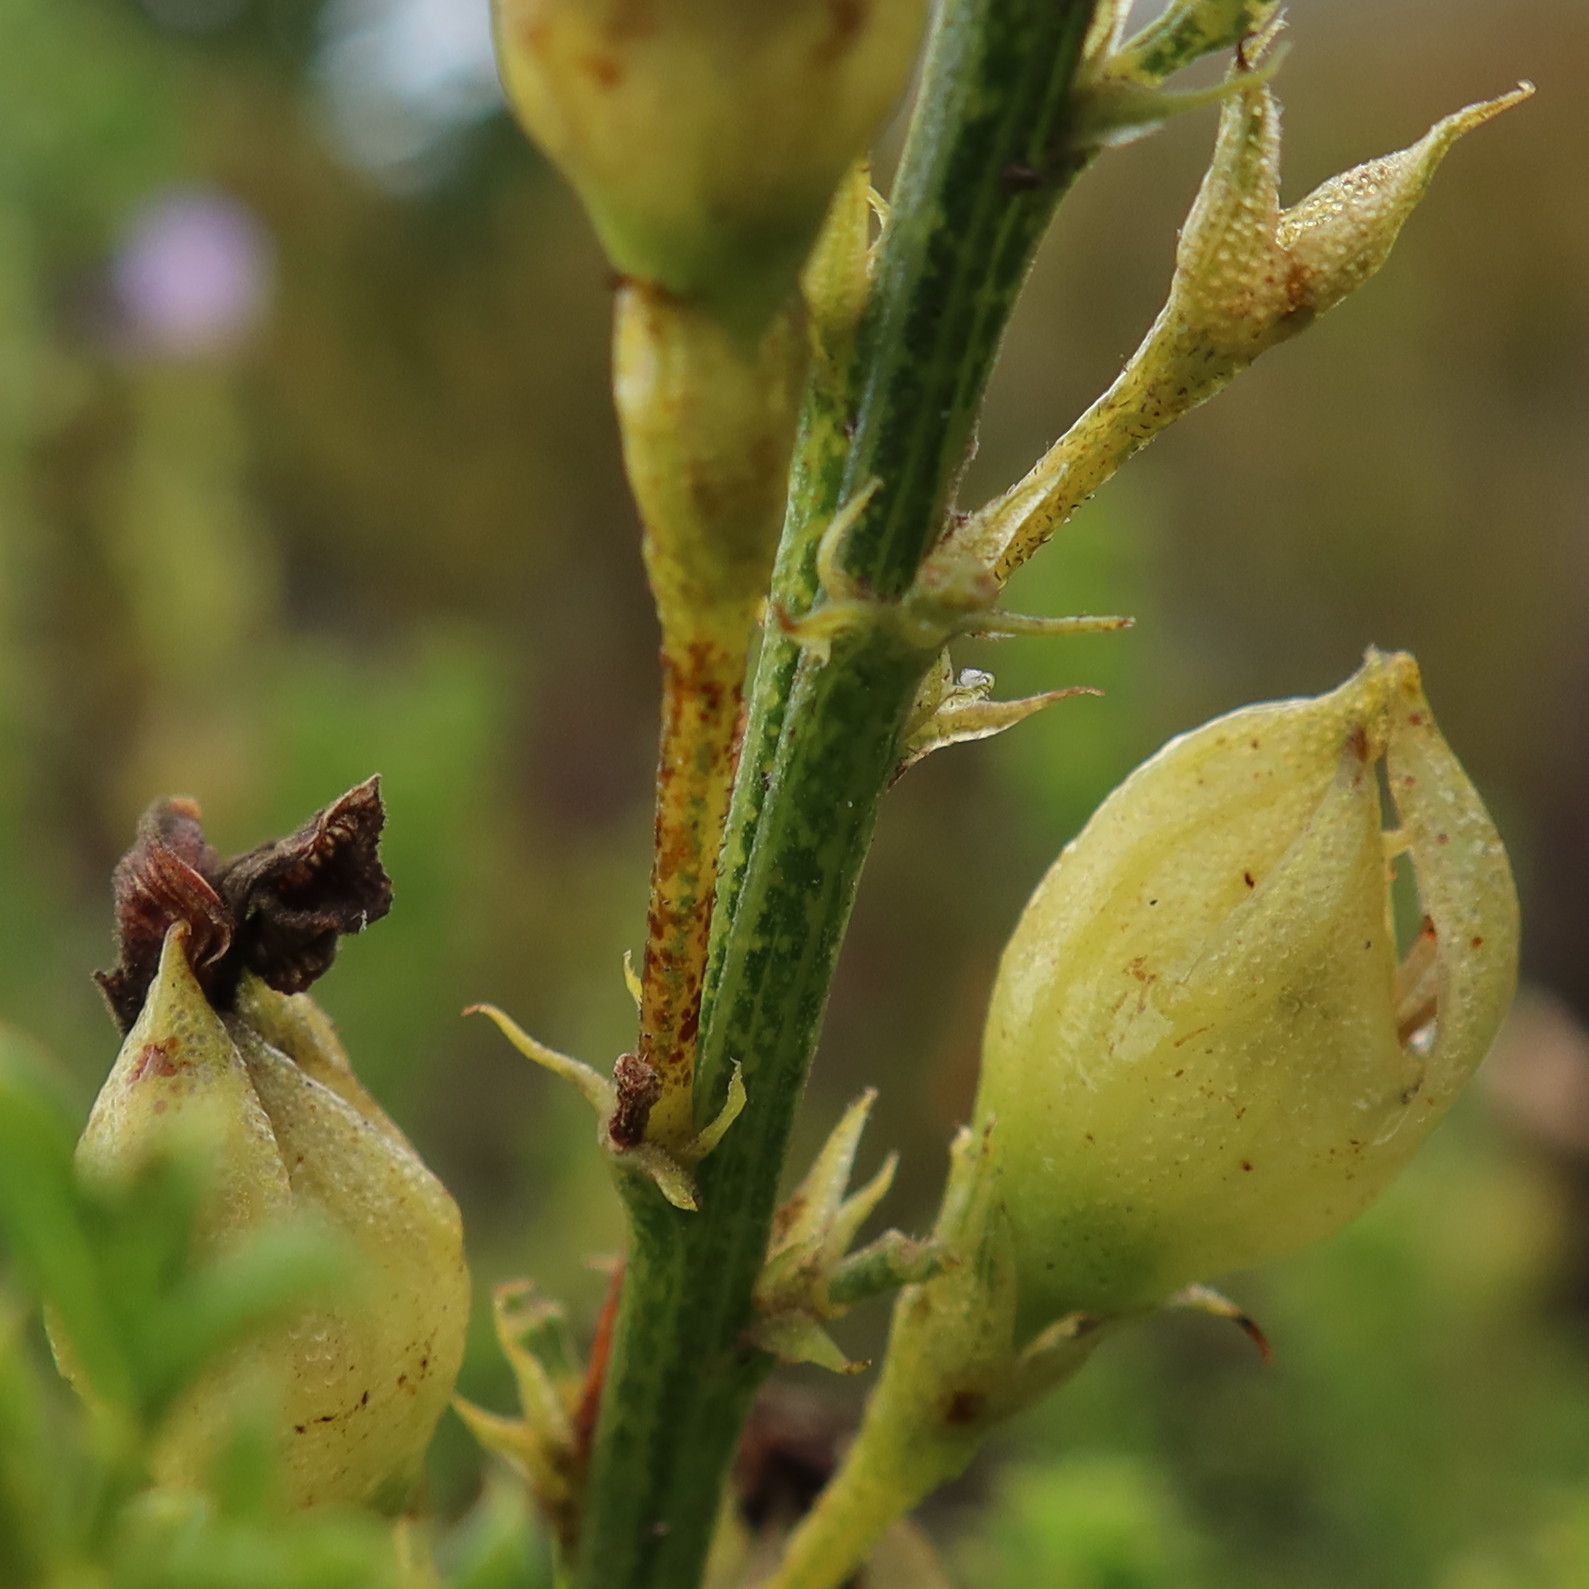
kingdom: Plantae
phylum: Tracheophyta
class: Magnoliopsida
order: Fabales
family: Fabaceae
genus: Psoralea
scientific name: Psoralea aculeata
